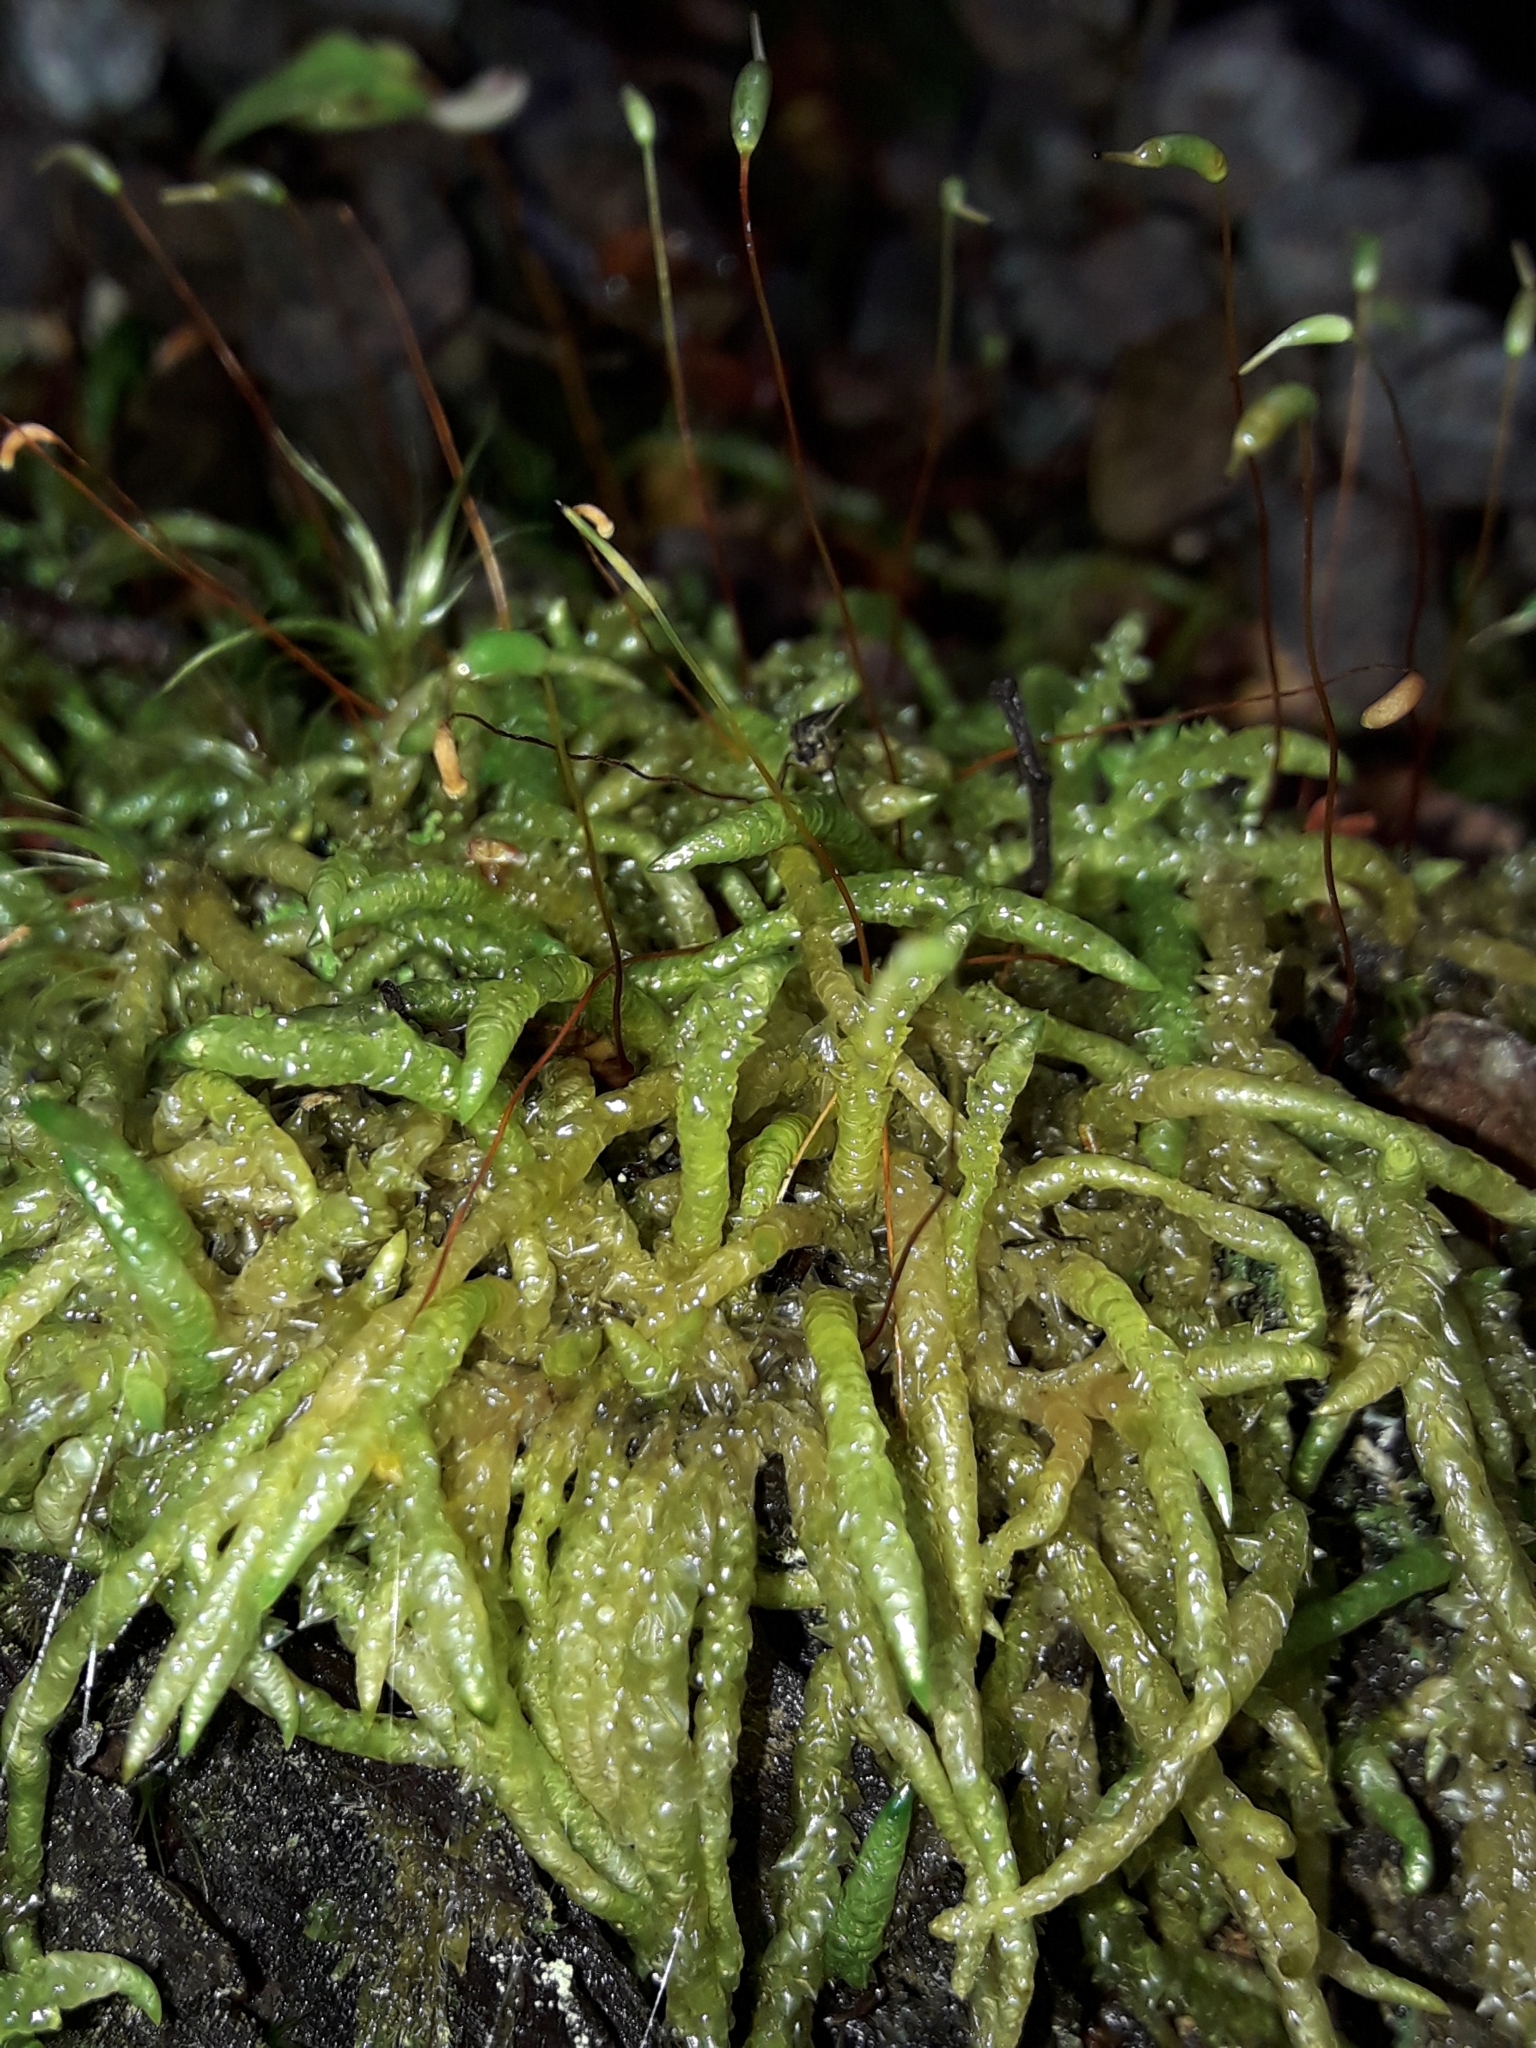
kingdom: Plantae
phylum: Bryophyta
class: Bryopsida
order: Hypnales
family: Acrocladiaceae
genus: Acrocladium
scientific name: Acrocladium chlamydophyllum
